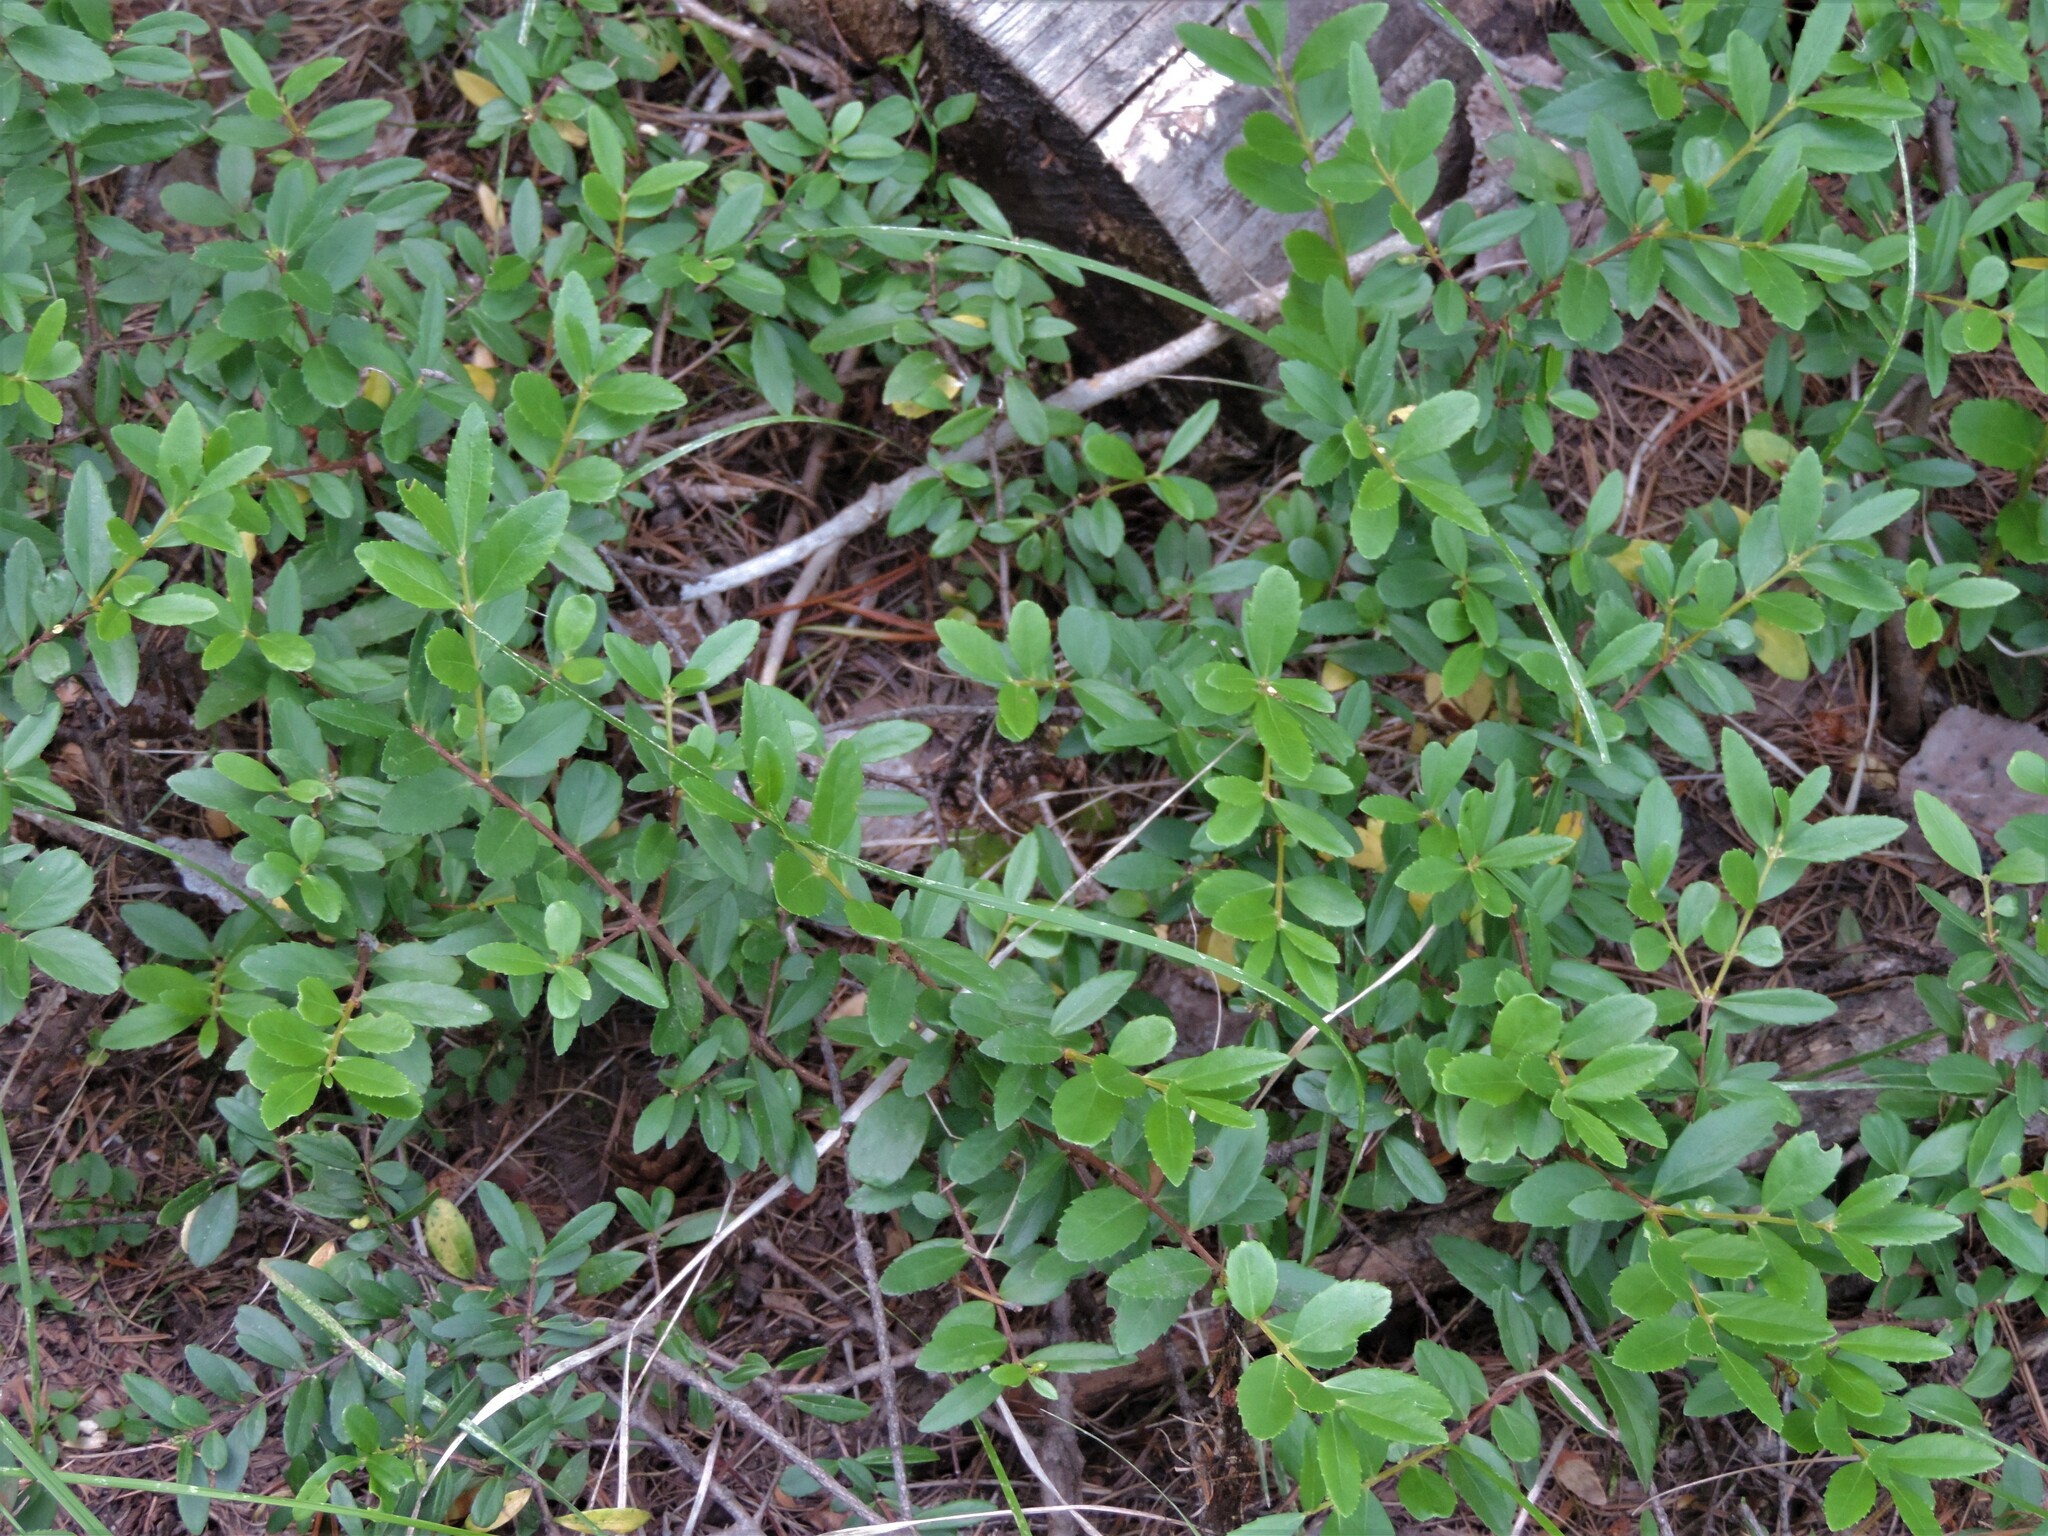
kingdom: Plantae
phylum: Tracheophyta
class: Magnoliopsida
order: Celastrales
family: Celastraceae
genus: Paxistima
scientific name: Paxistima myrsinites
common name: Mountain-lover
